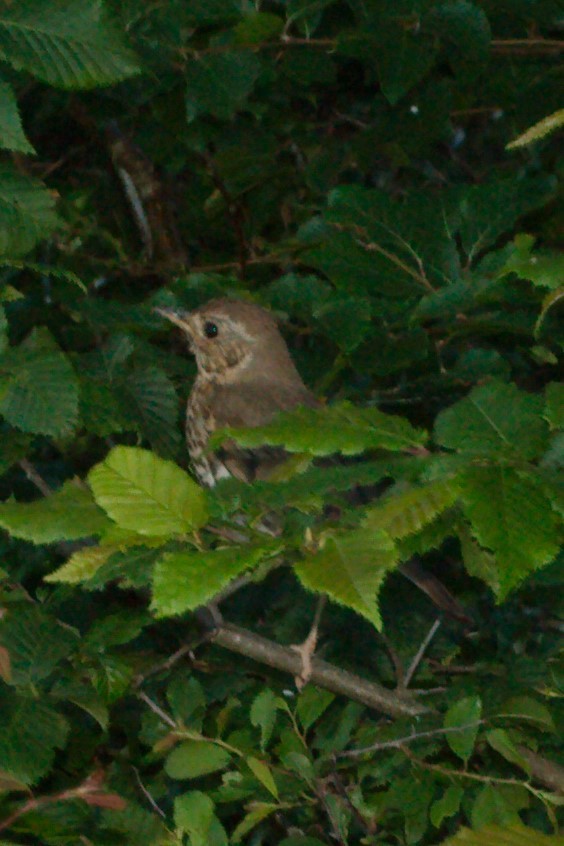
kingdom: Animalia
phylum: Chordata
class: Aves
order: Passeriformes
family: Turdidae
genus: Turdus
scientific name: Turdus philomelos
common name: Song thrush
